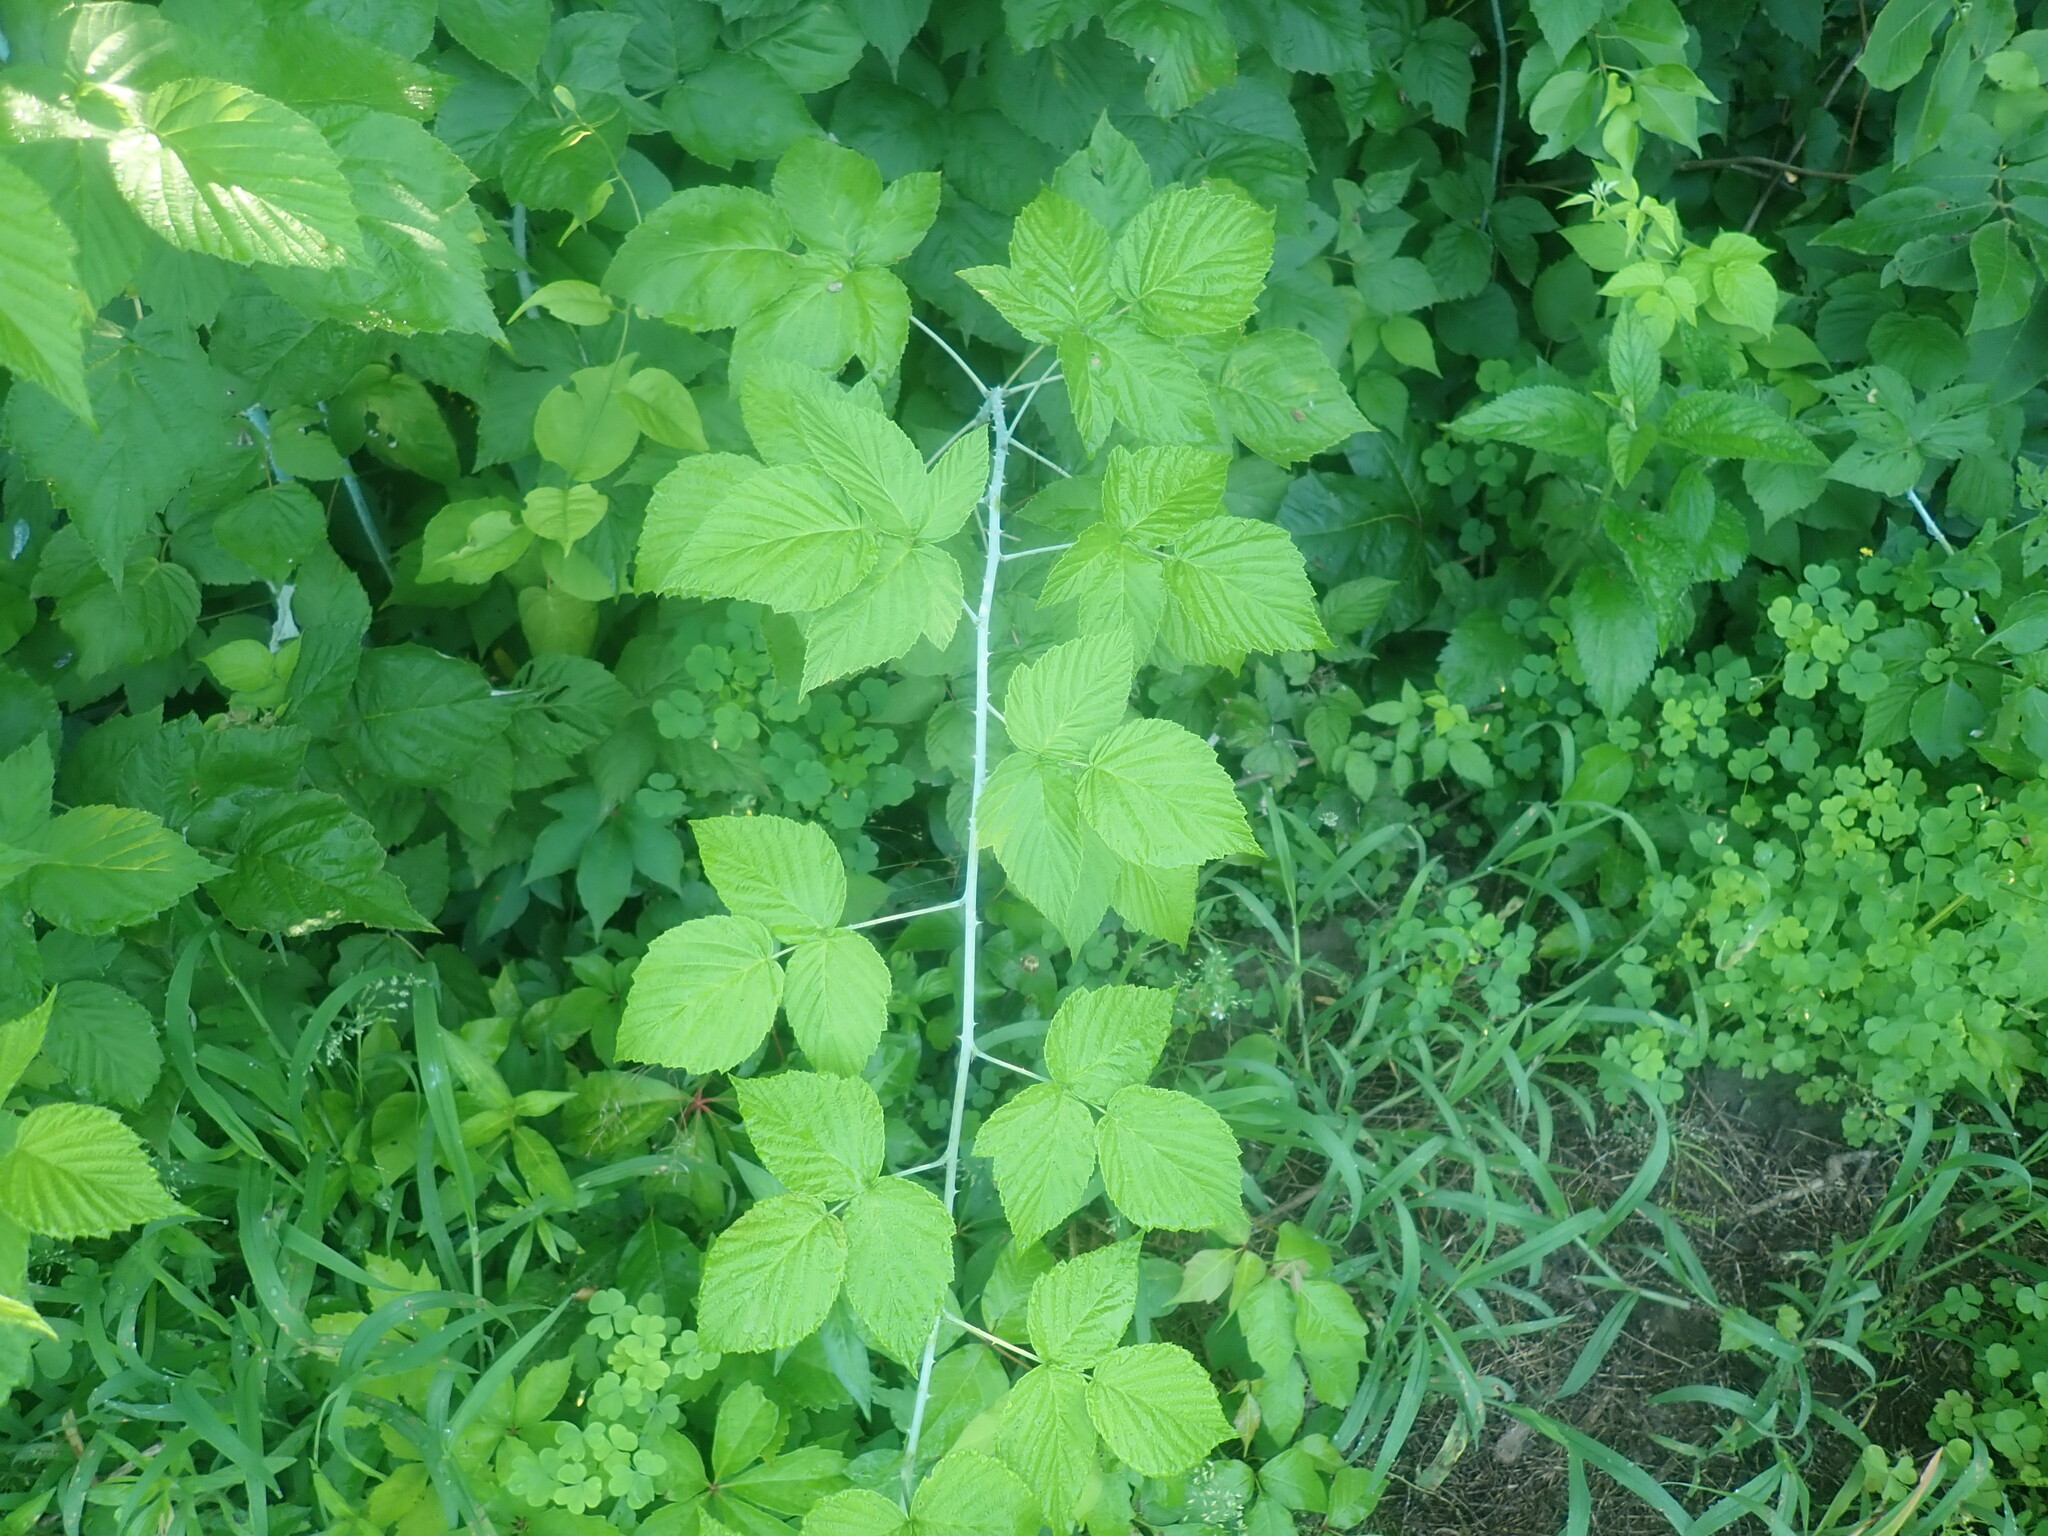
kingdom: Plantae
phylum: Tracheophyta
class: Magnoliopsida
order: Rosales
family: Rosaceae
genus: Rubus
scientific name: Rubus occidentalis
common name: Black raspberry
